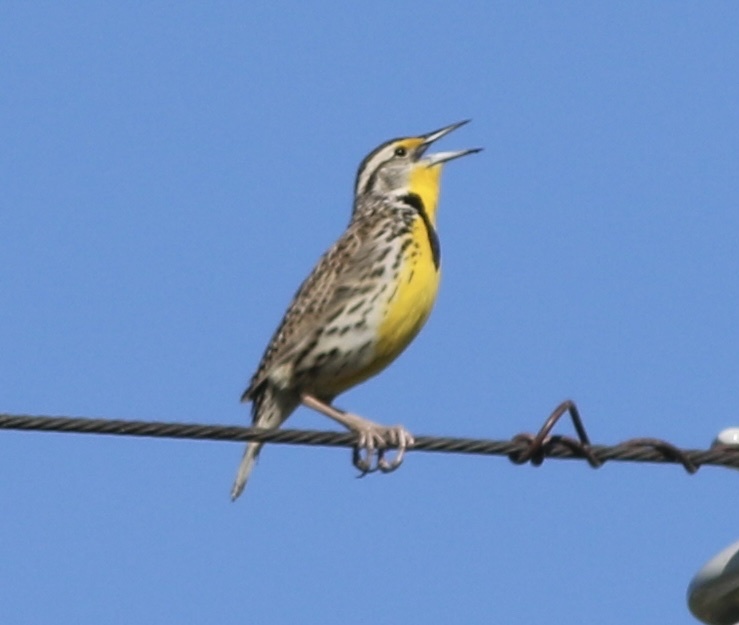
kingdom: Animalia
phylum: Chordata
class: Aves
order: Passeriformes
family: Icteridae
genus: Sturnella
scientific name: Sturnella neglecta
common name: Western meadowlark
